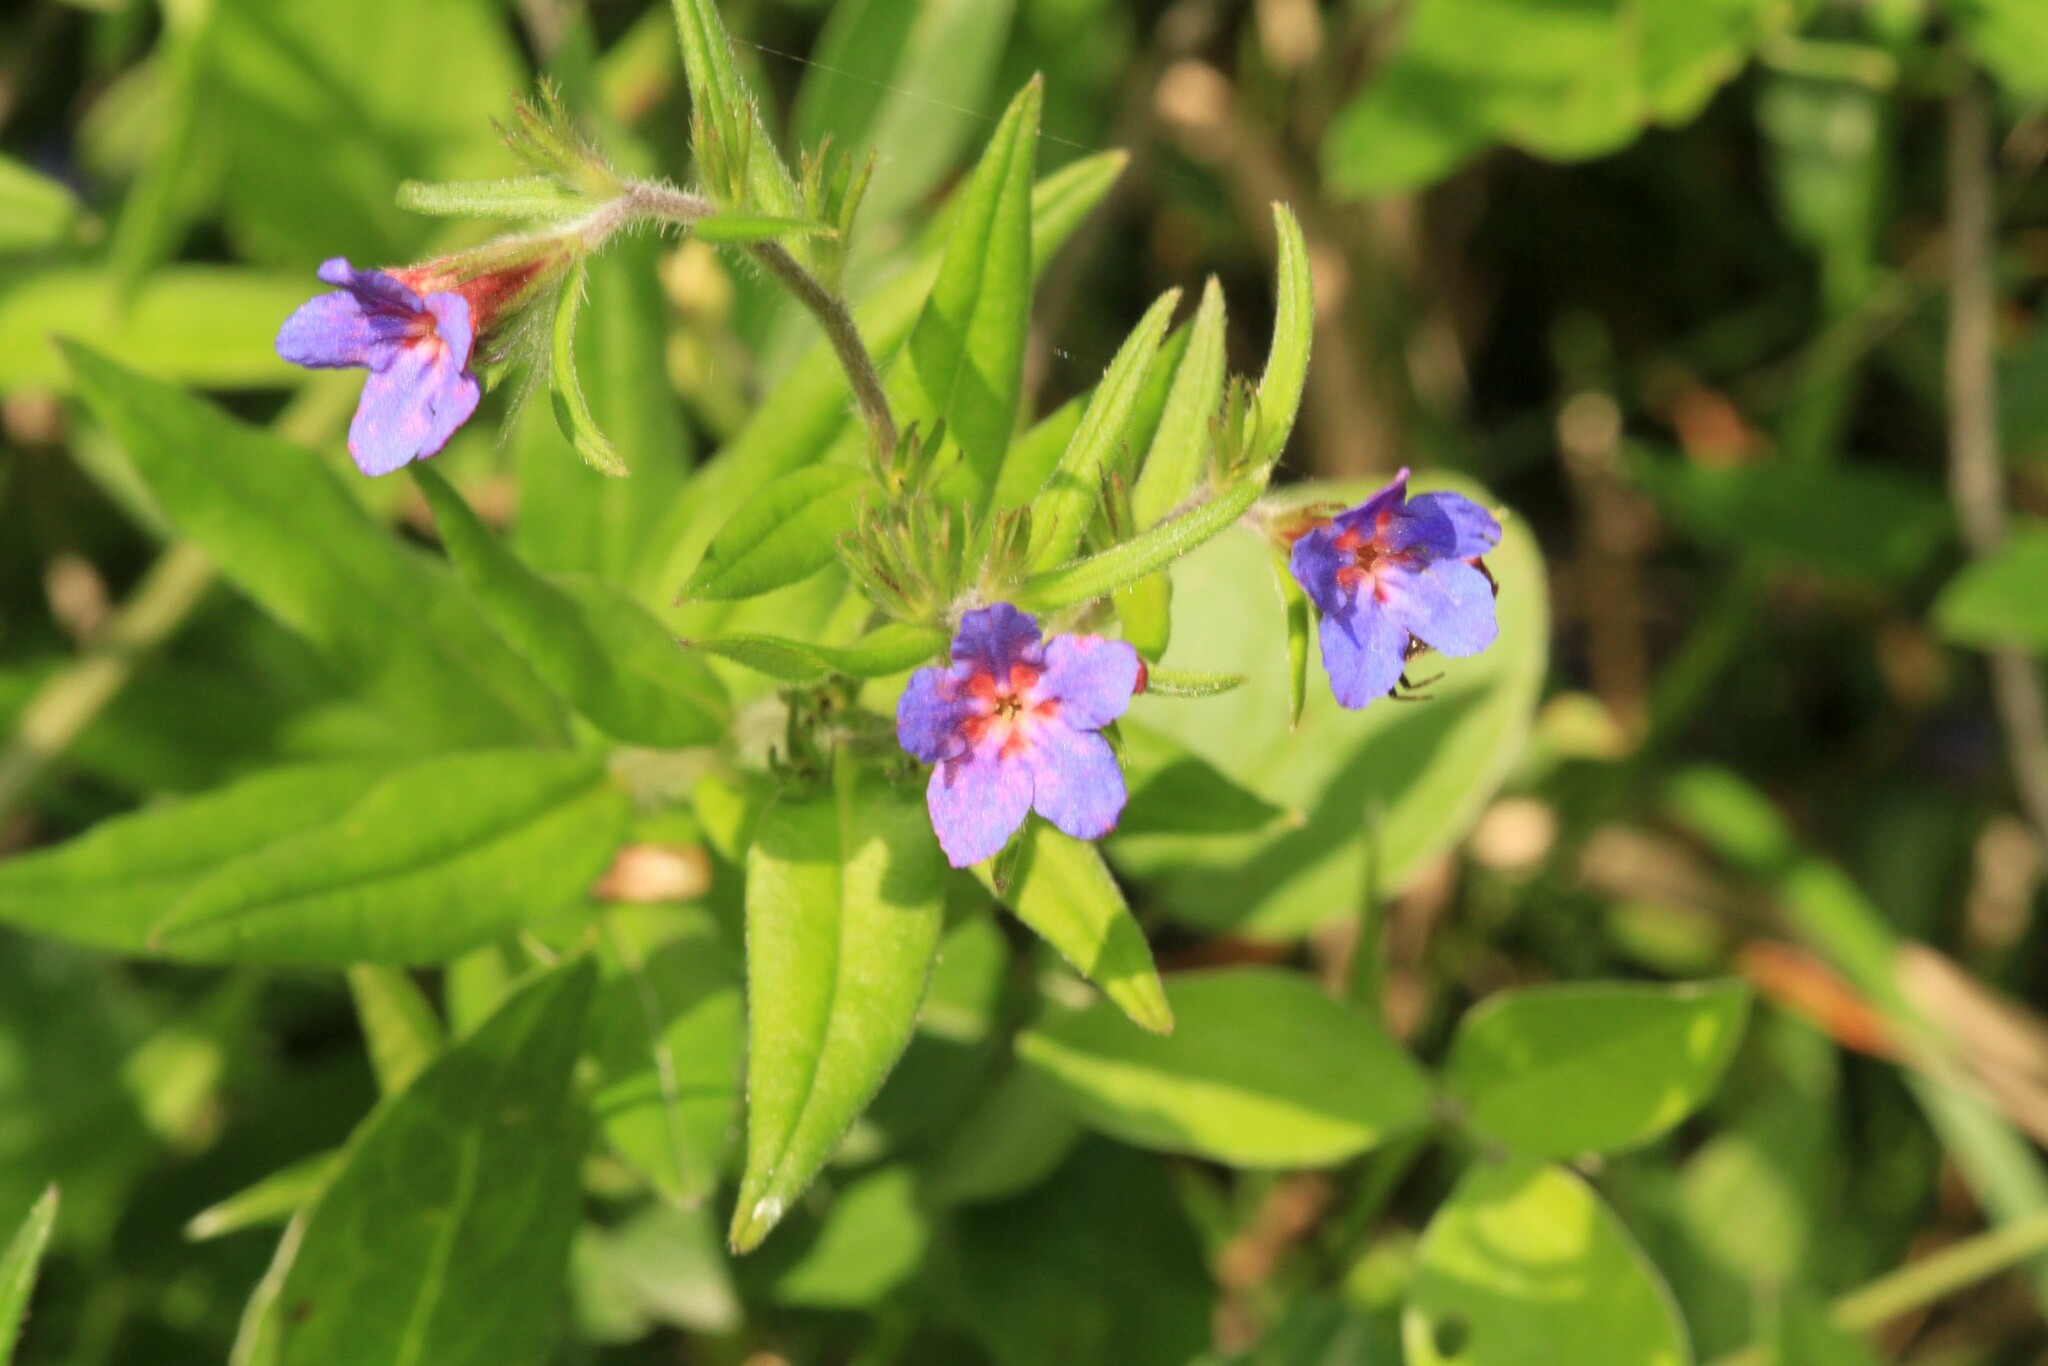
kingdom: Plantae
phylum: Tracheophyta
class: Magnoliopsida
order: Boraginales
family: Boraginaceae
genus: Aegonychon
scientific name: Aegonychon purpurocaeruleum
